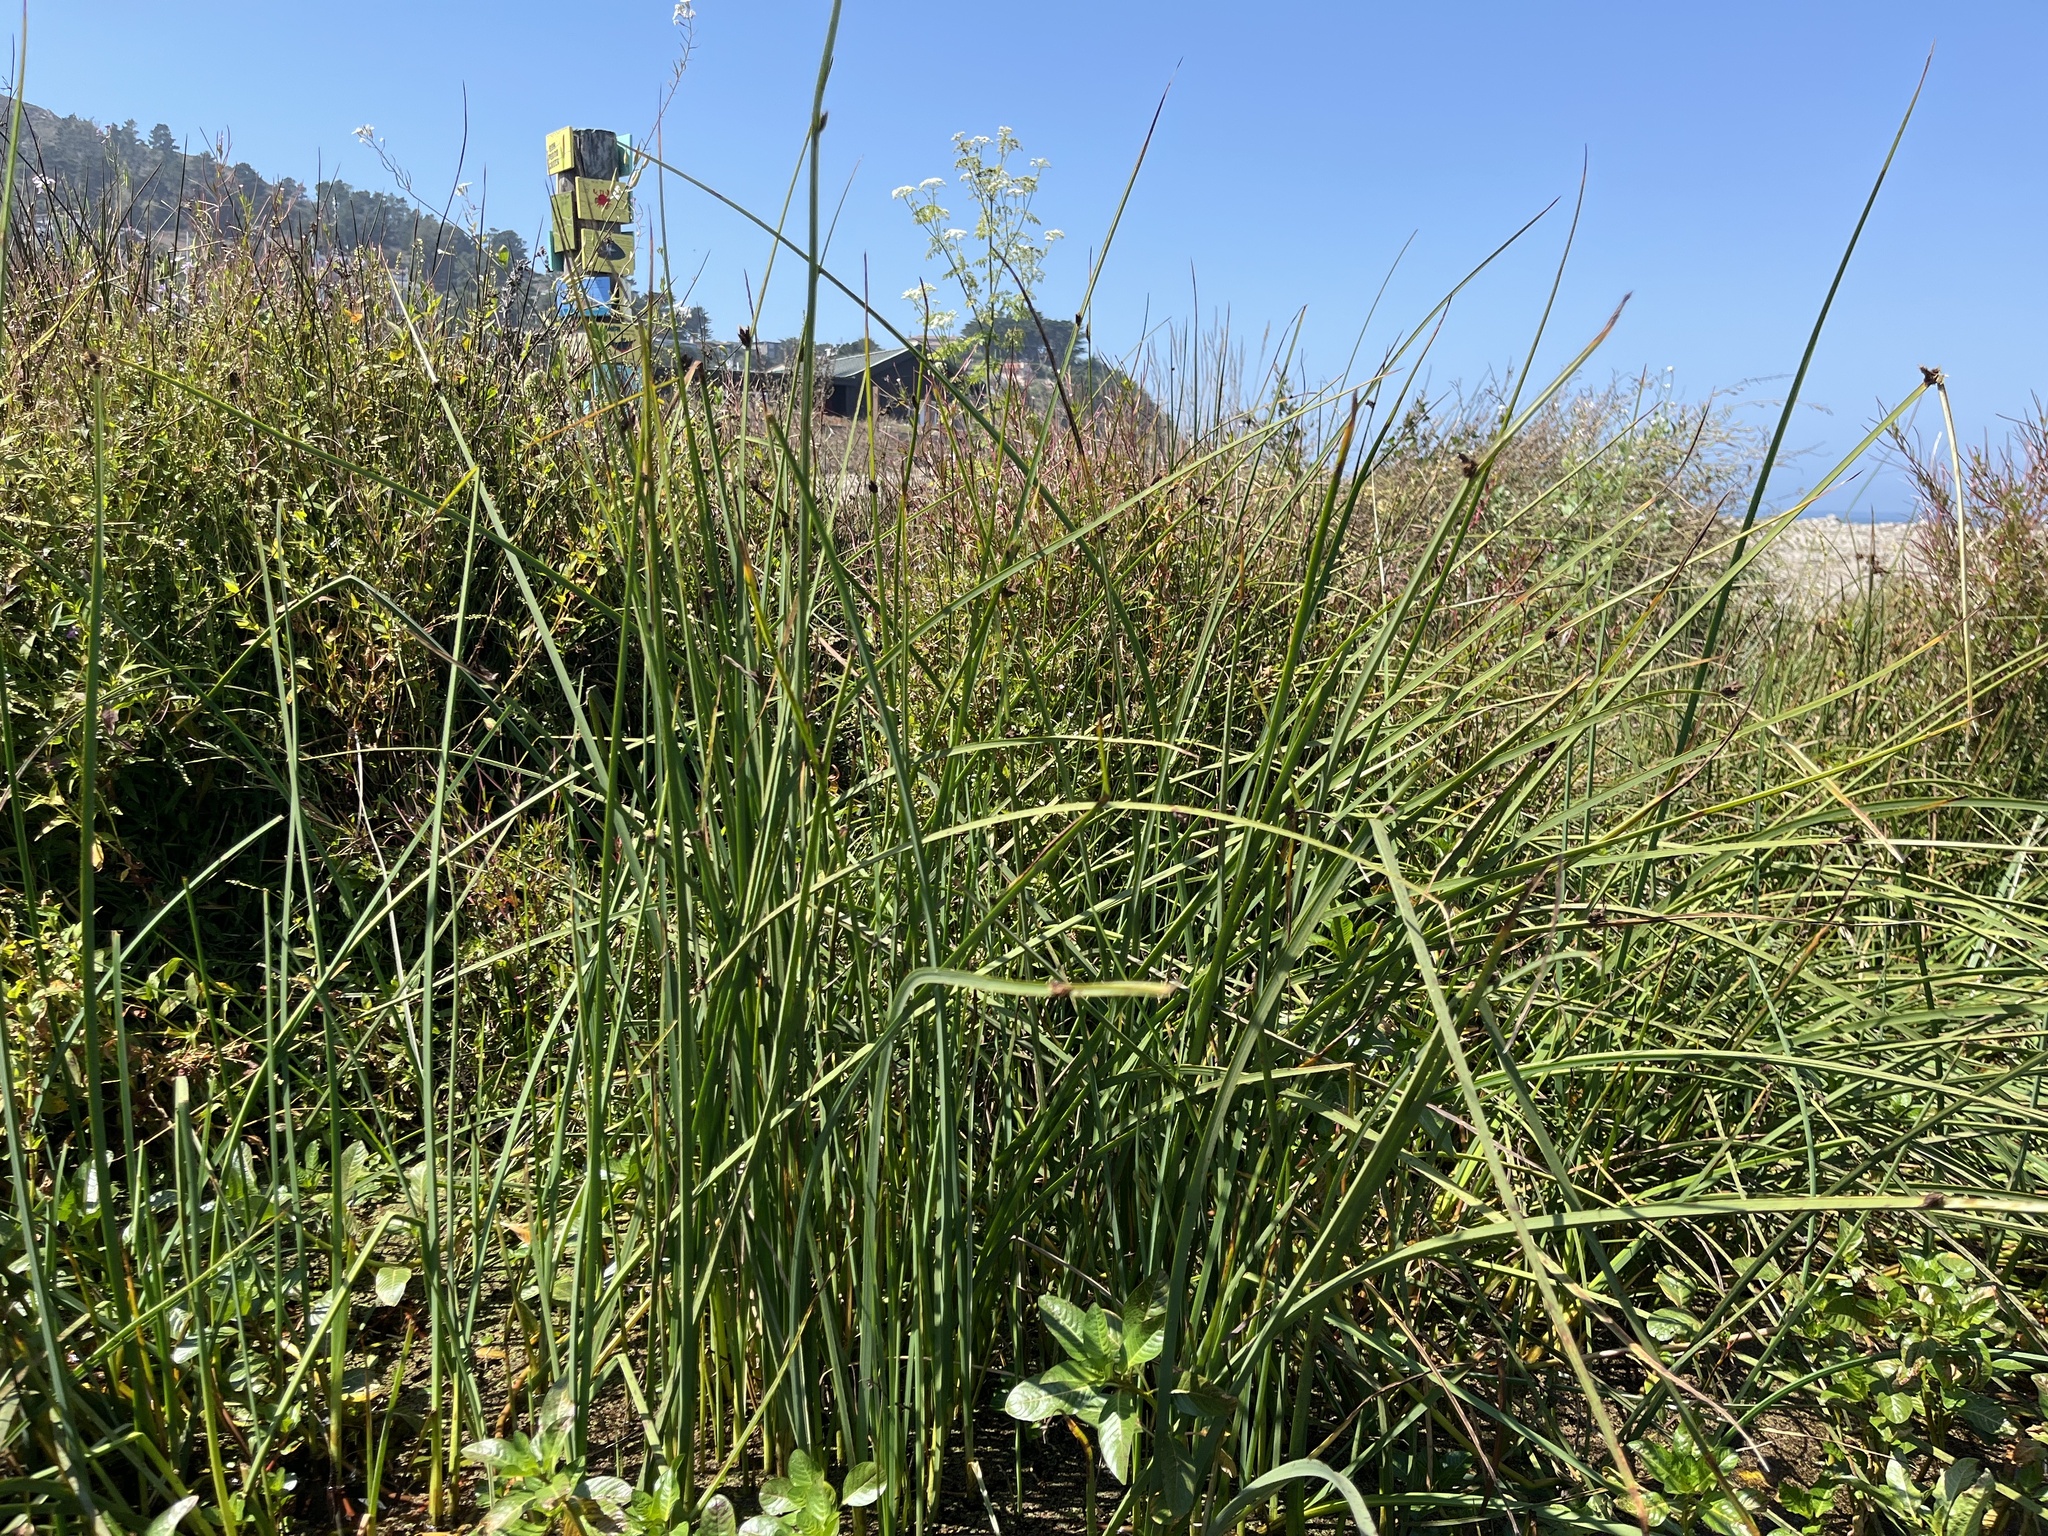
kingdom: Plantae
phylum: Tracheophyta
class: Liliopsida
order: Poales
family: Cyperaceae
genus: Schoenoplectus
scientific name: Schoenoplectus pungens
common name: Sharp club-rush
